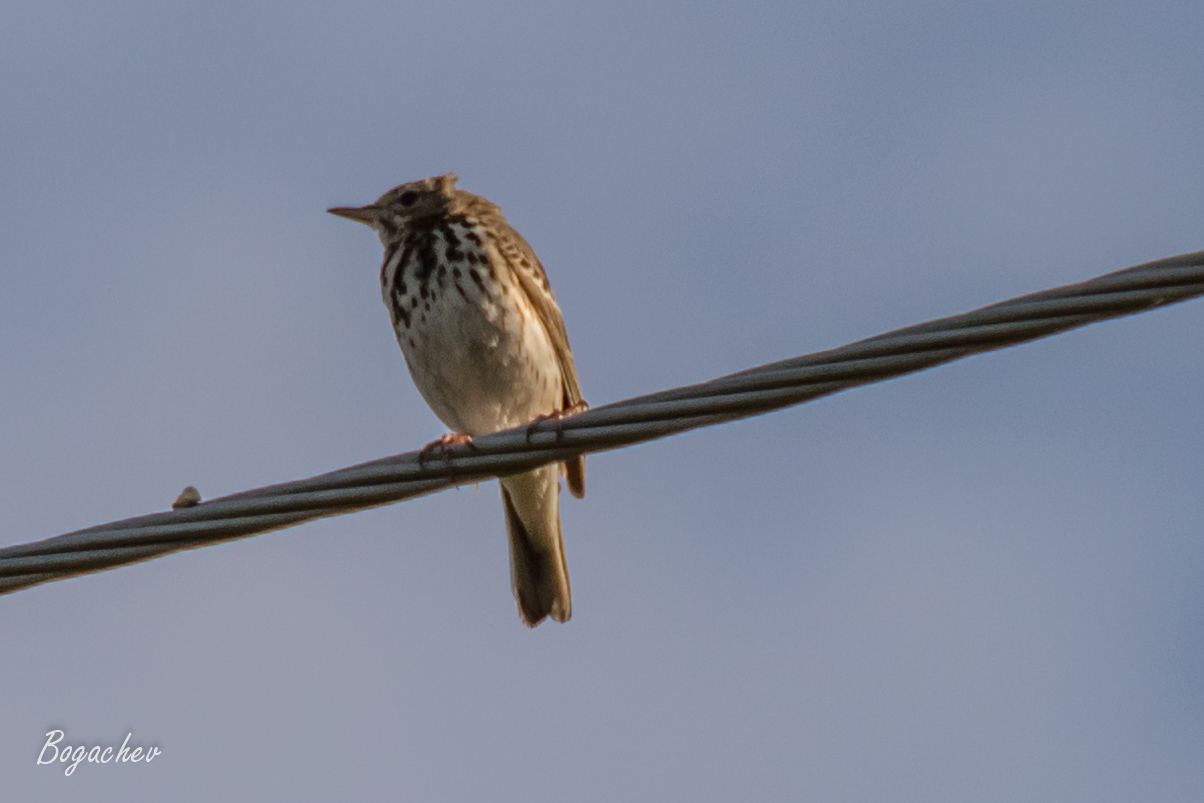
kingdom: Animalia
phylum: Chordata
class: Aves
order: Passeriformes
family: Motacillidae
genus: Anthus
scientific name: Anthus trivialis
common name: Tree pipit
